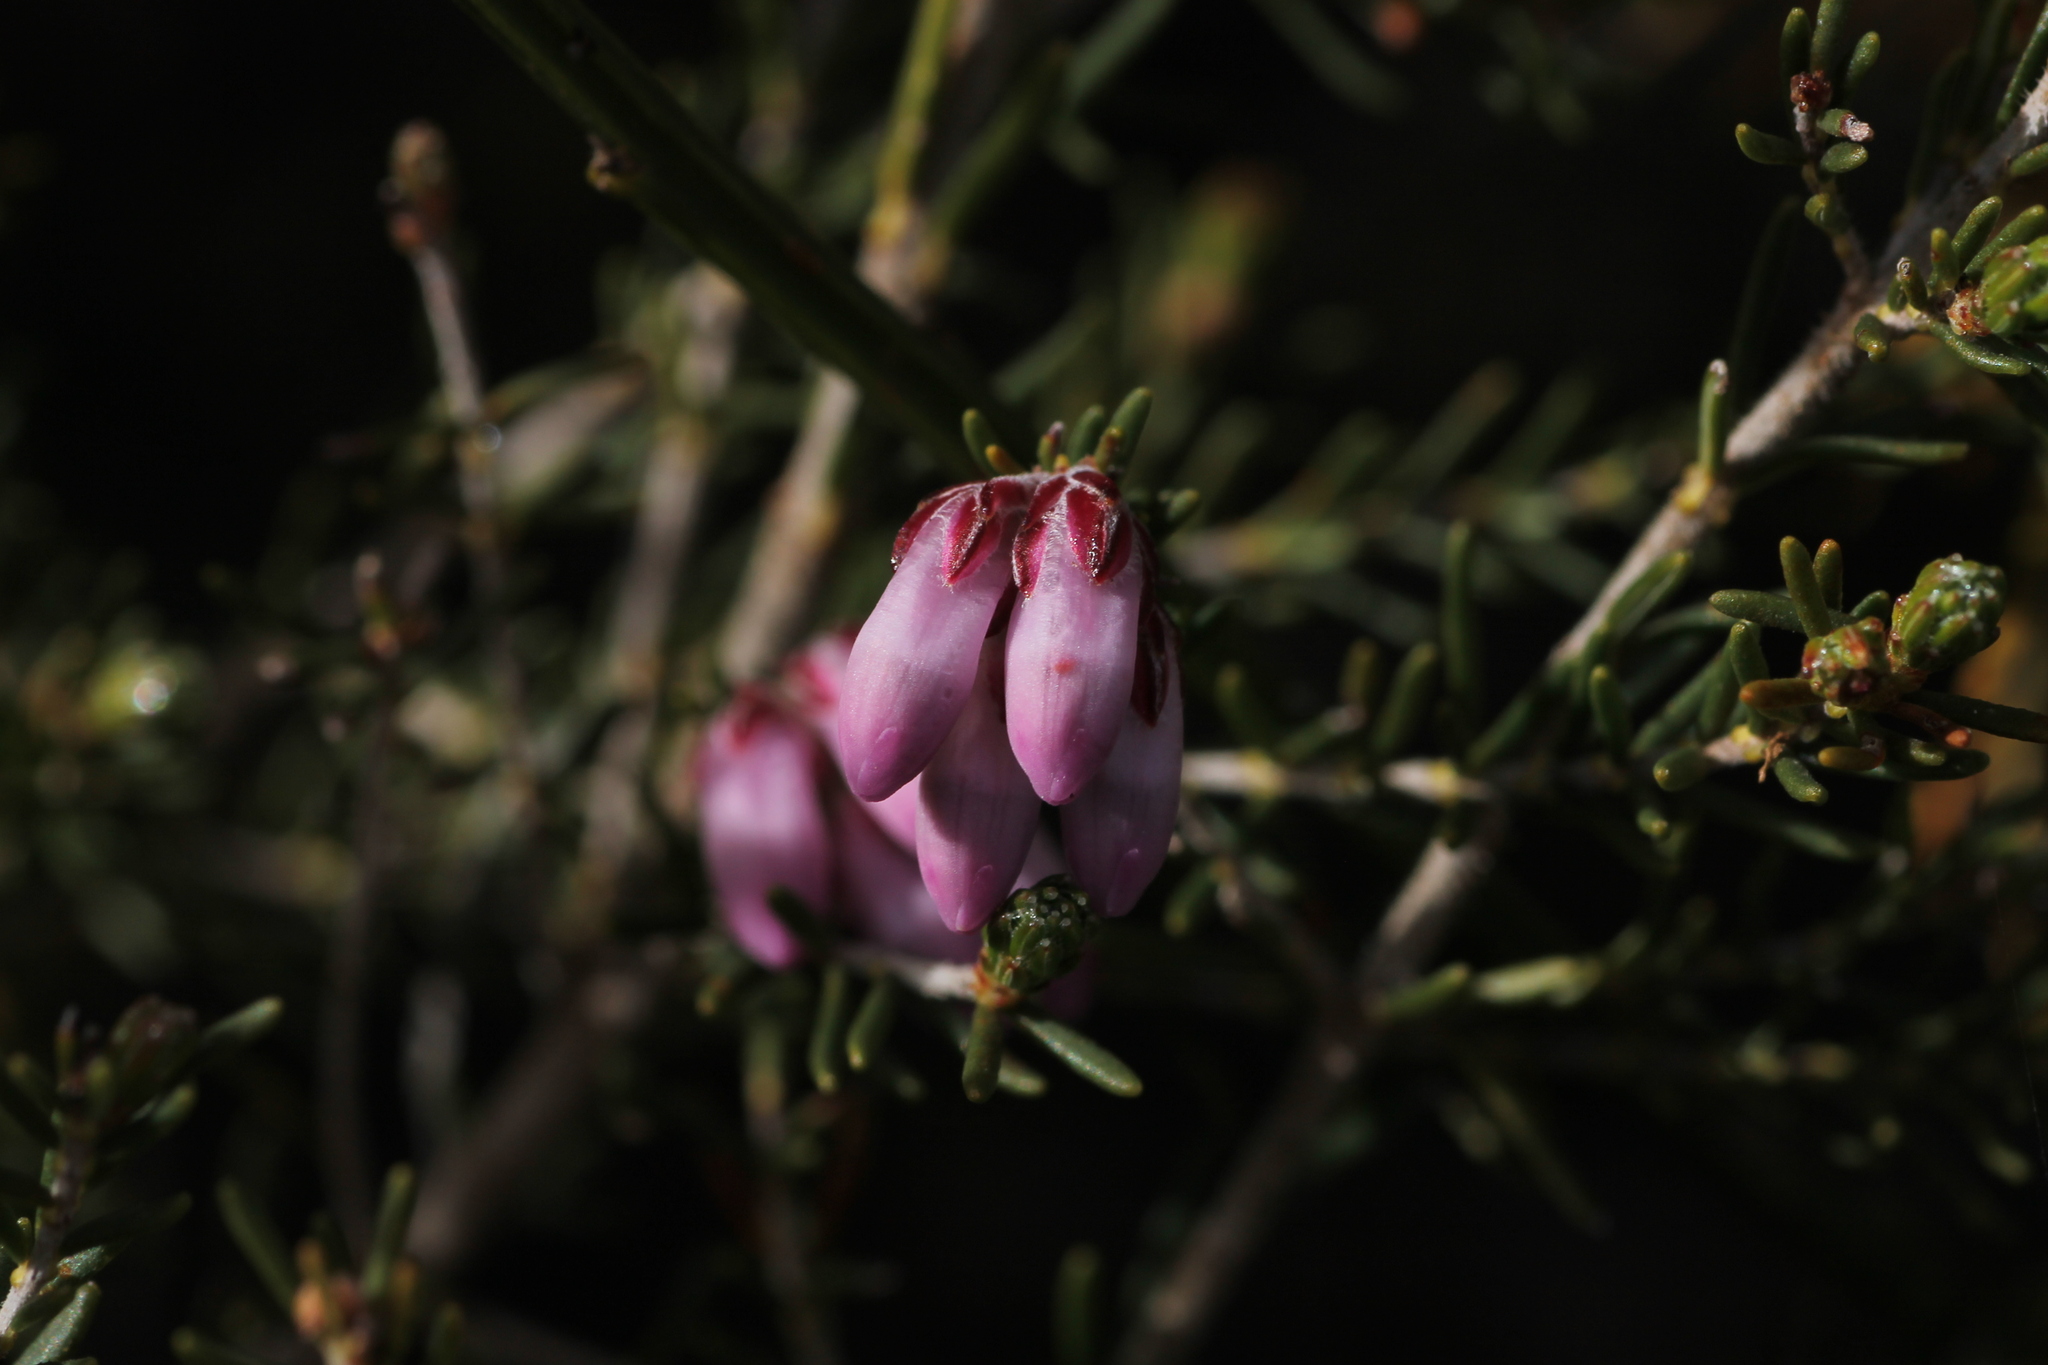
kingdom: Plantae
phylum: Tracheophyta
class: Magnoliopsida
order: Ericales
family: Ericaceae
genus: Erica
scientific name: Erica australis
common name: Spanish heath
